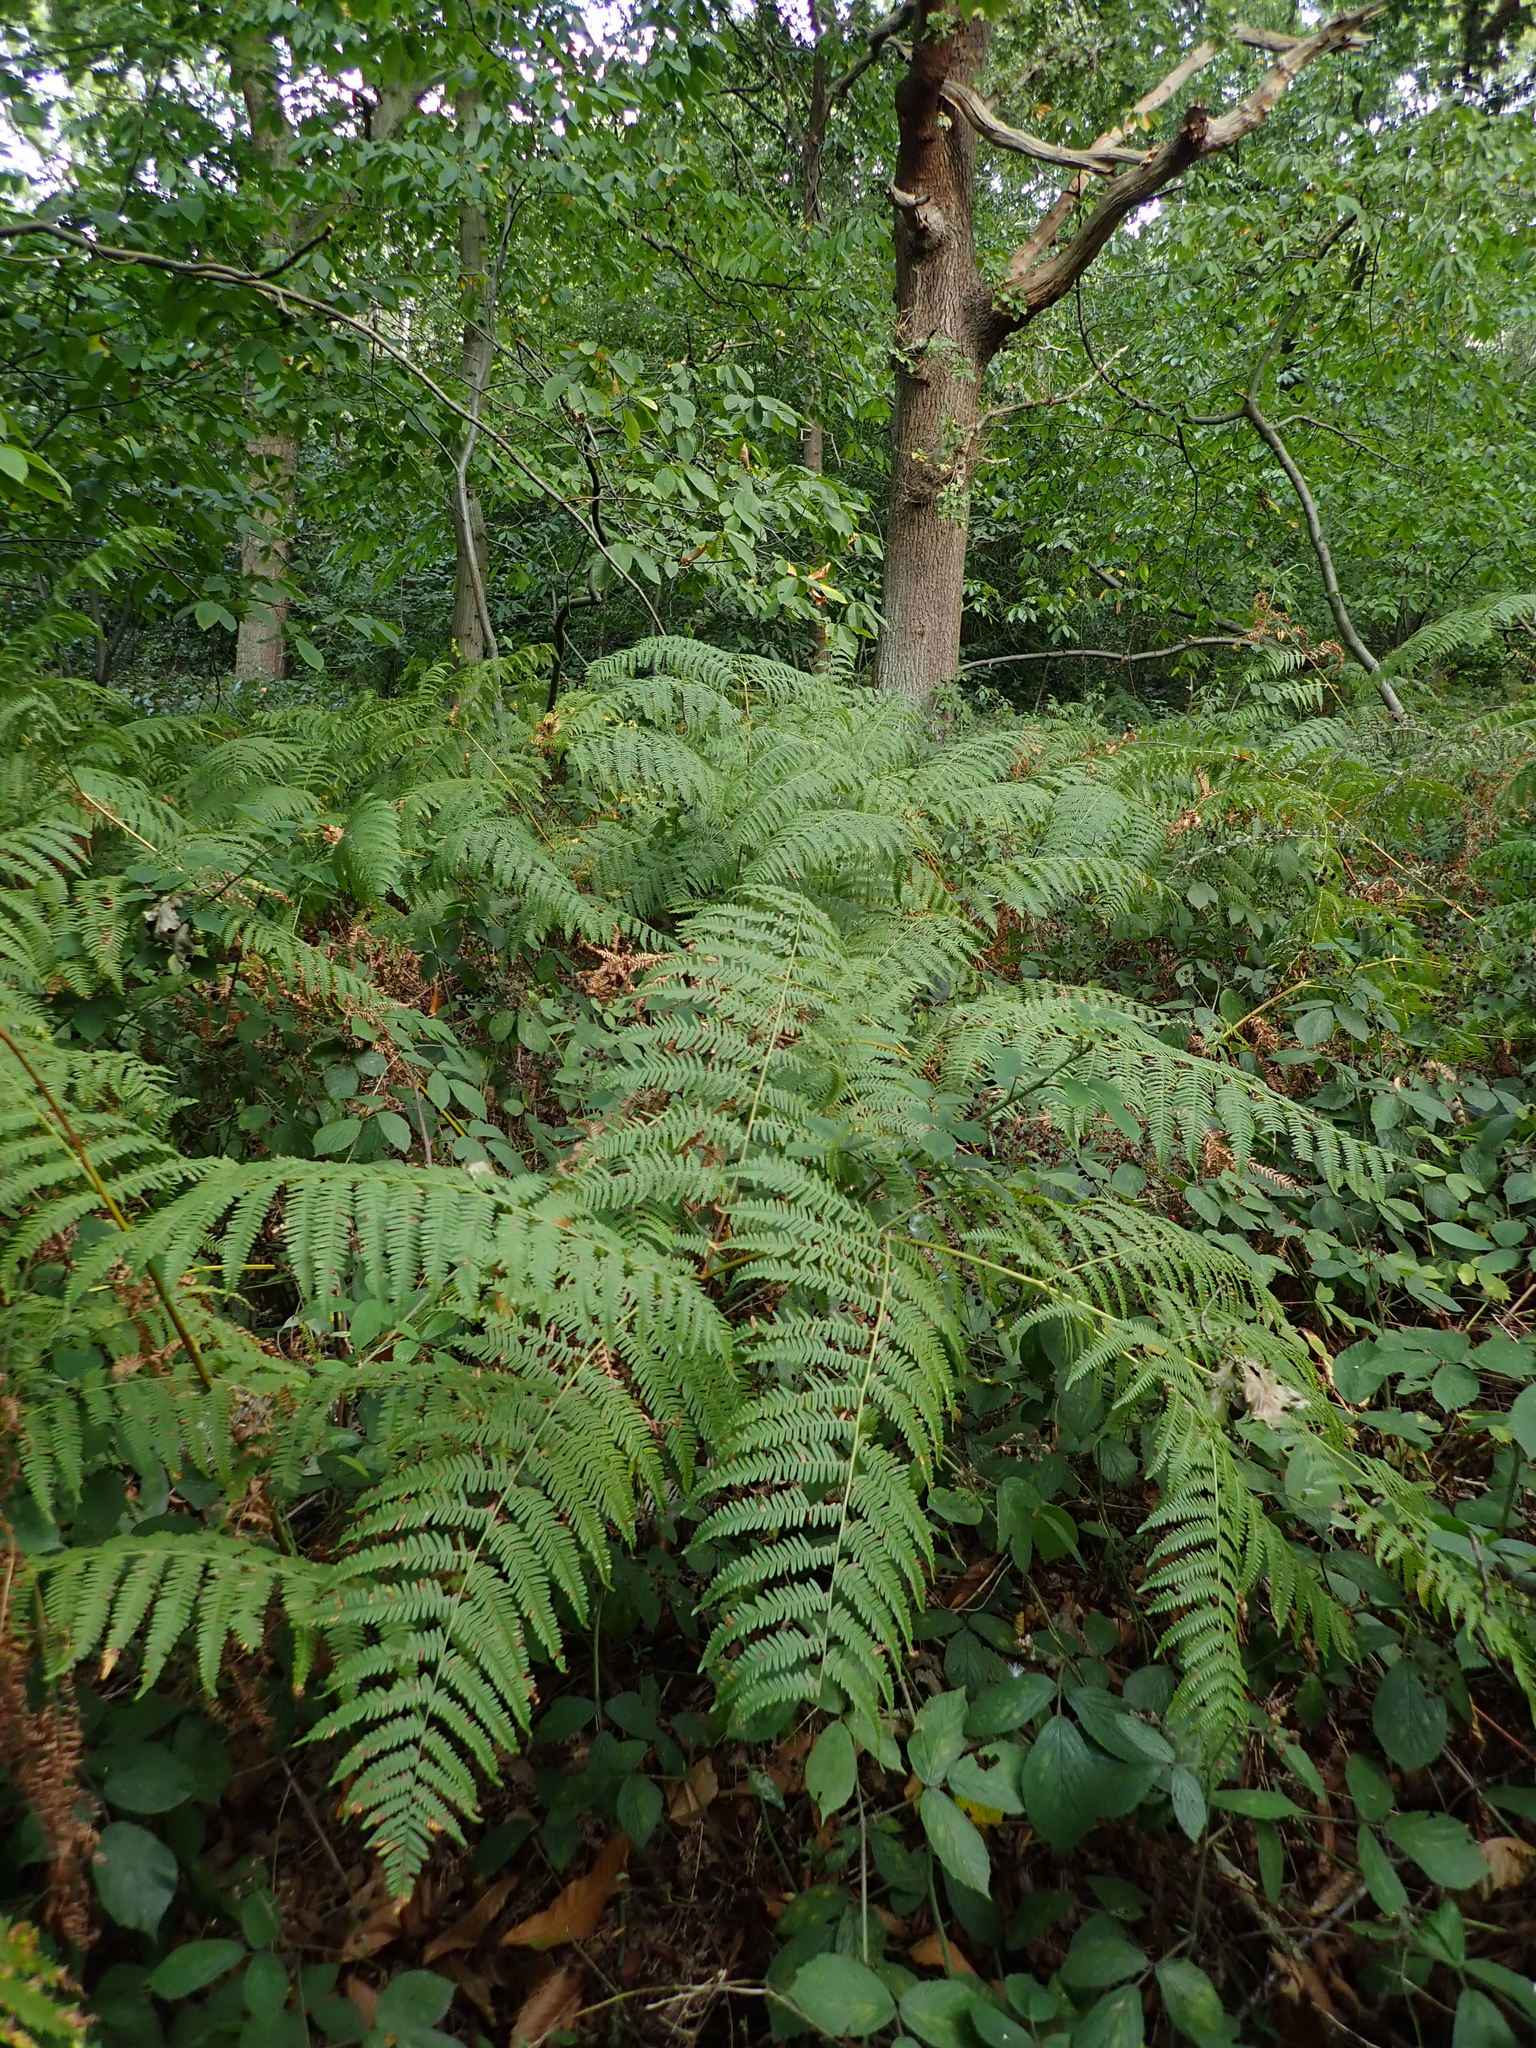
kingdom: Plantae
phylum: Tracheophyta
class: Polypodiopsida
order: Polypodiales
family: Dennstaedtiaceae
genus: Pteridium
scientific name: Pteridium aquilinum
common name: Bracken
